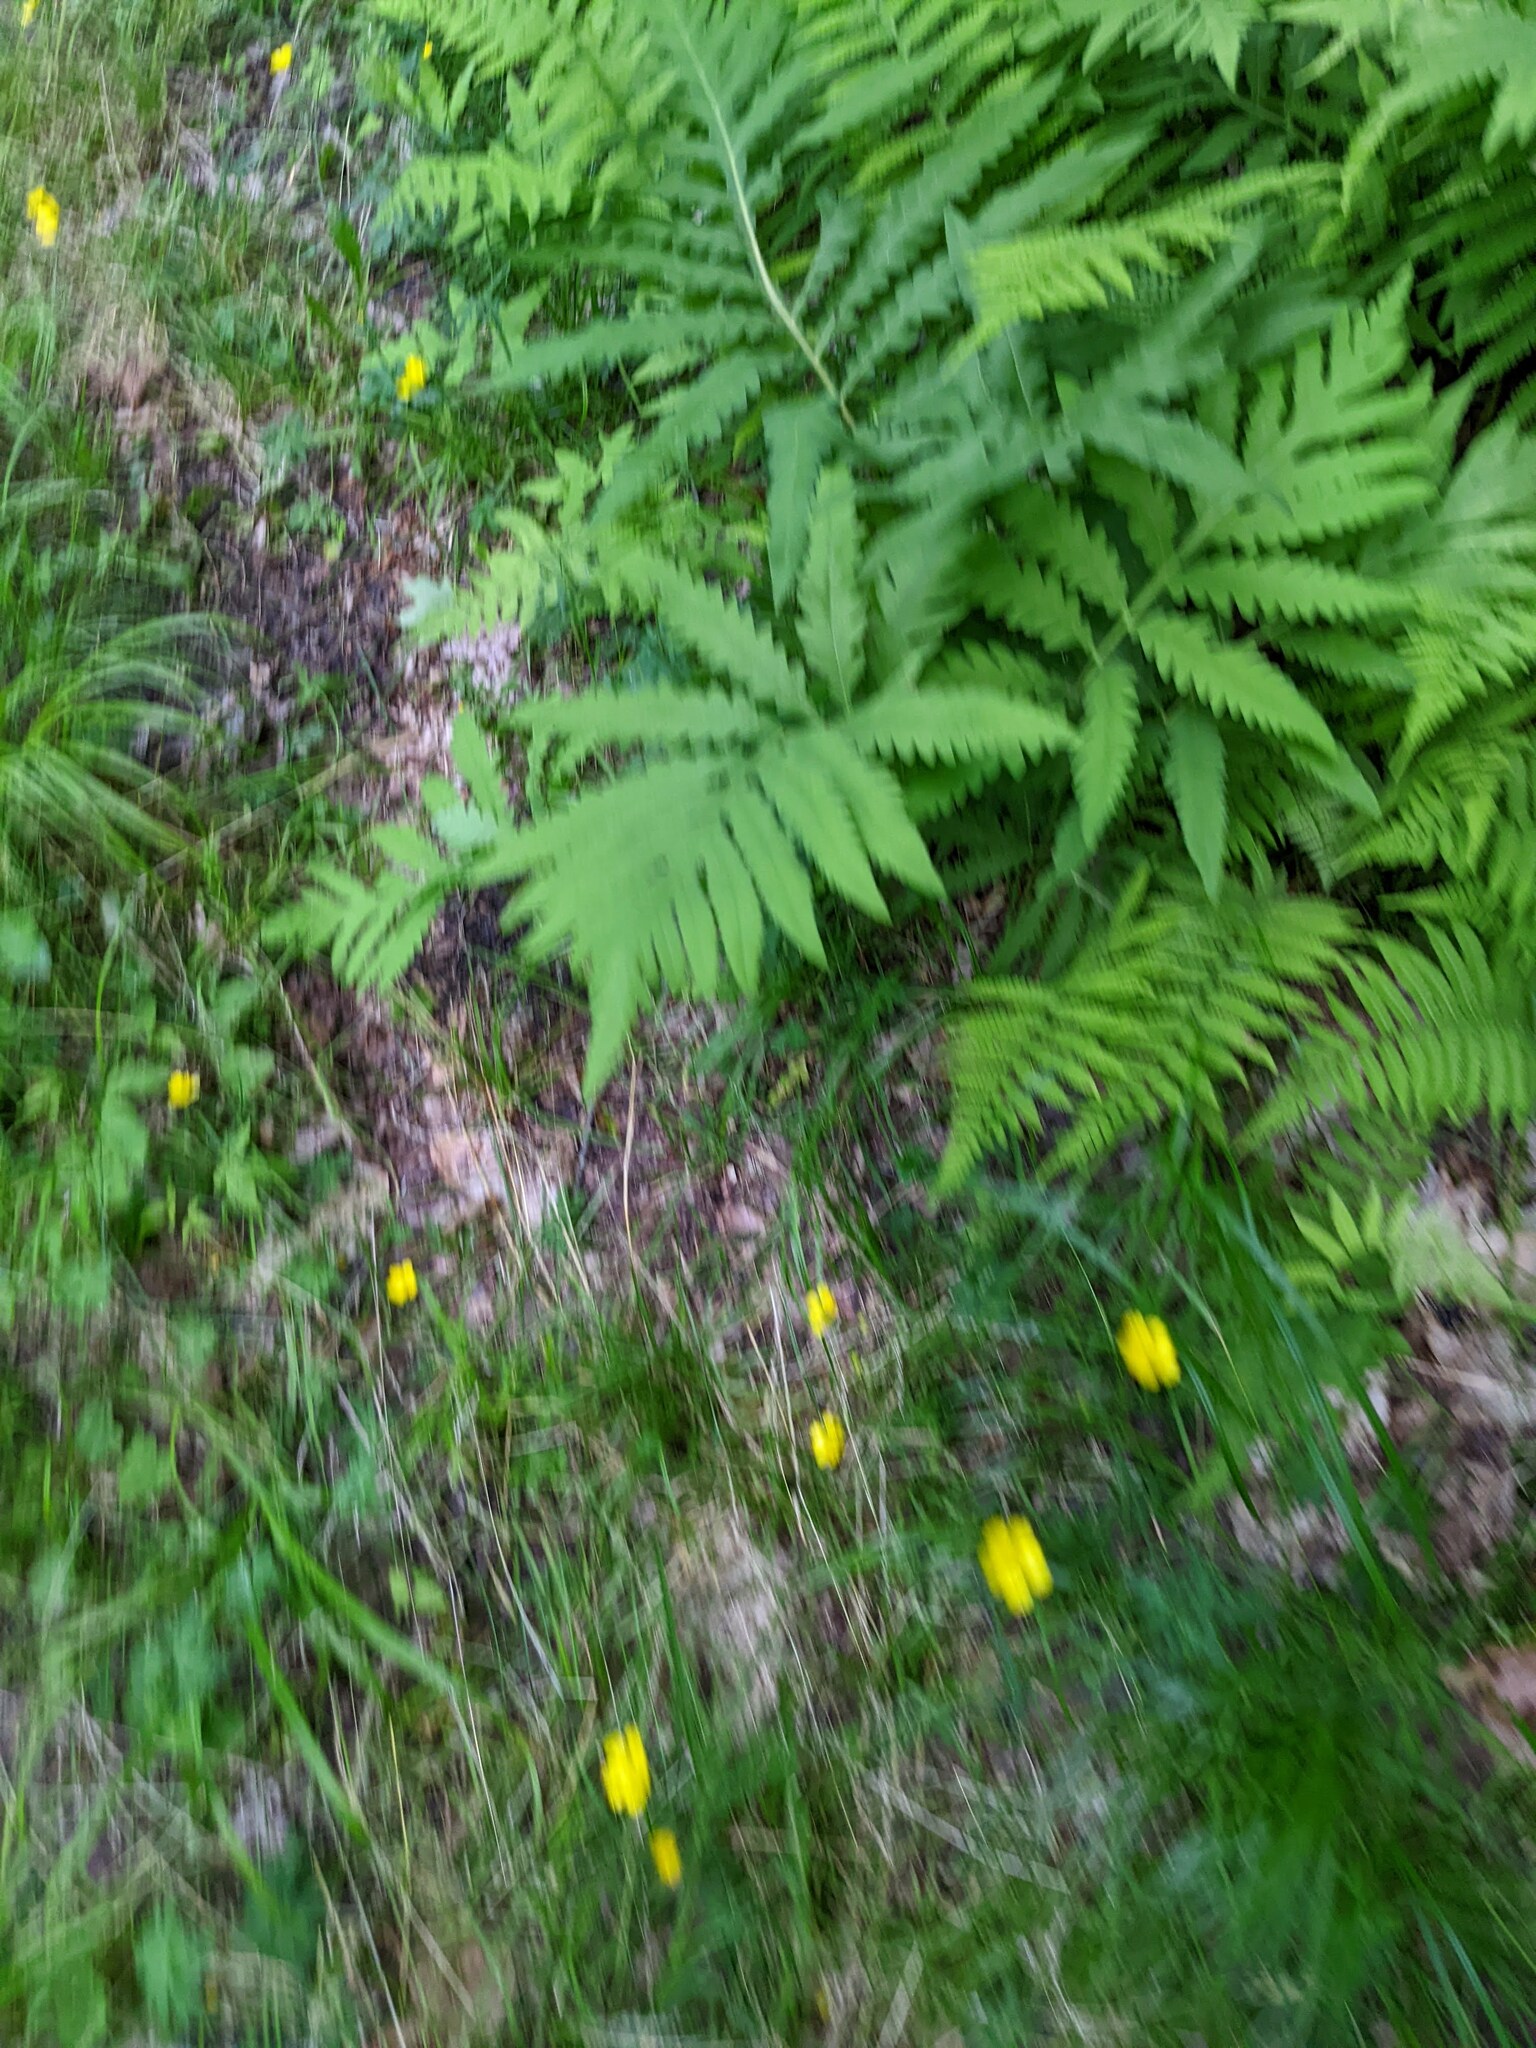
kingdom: Plantae
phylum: Tracheophyta
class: Polypodiopsida
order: Polypodiales
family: Onocleaceae
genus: Onoclea
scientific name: Onoclea sensibilis
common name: Sensitive fern
